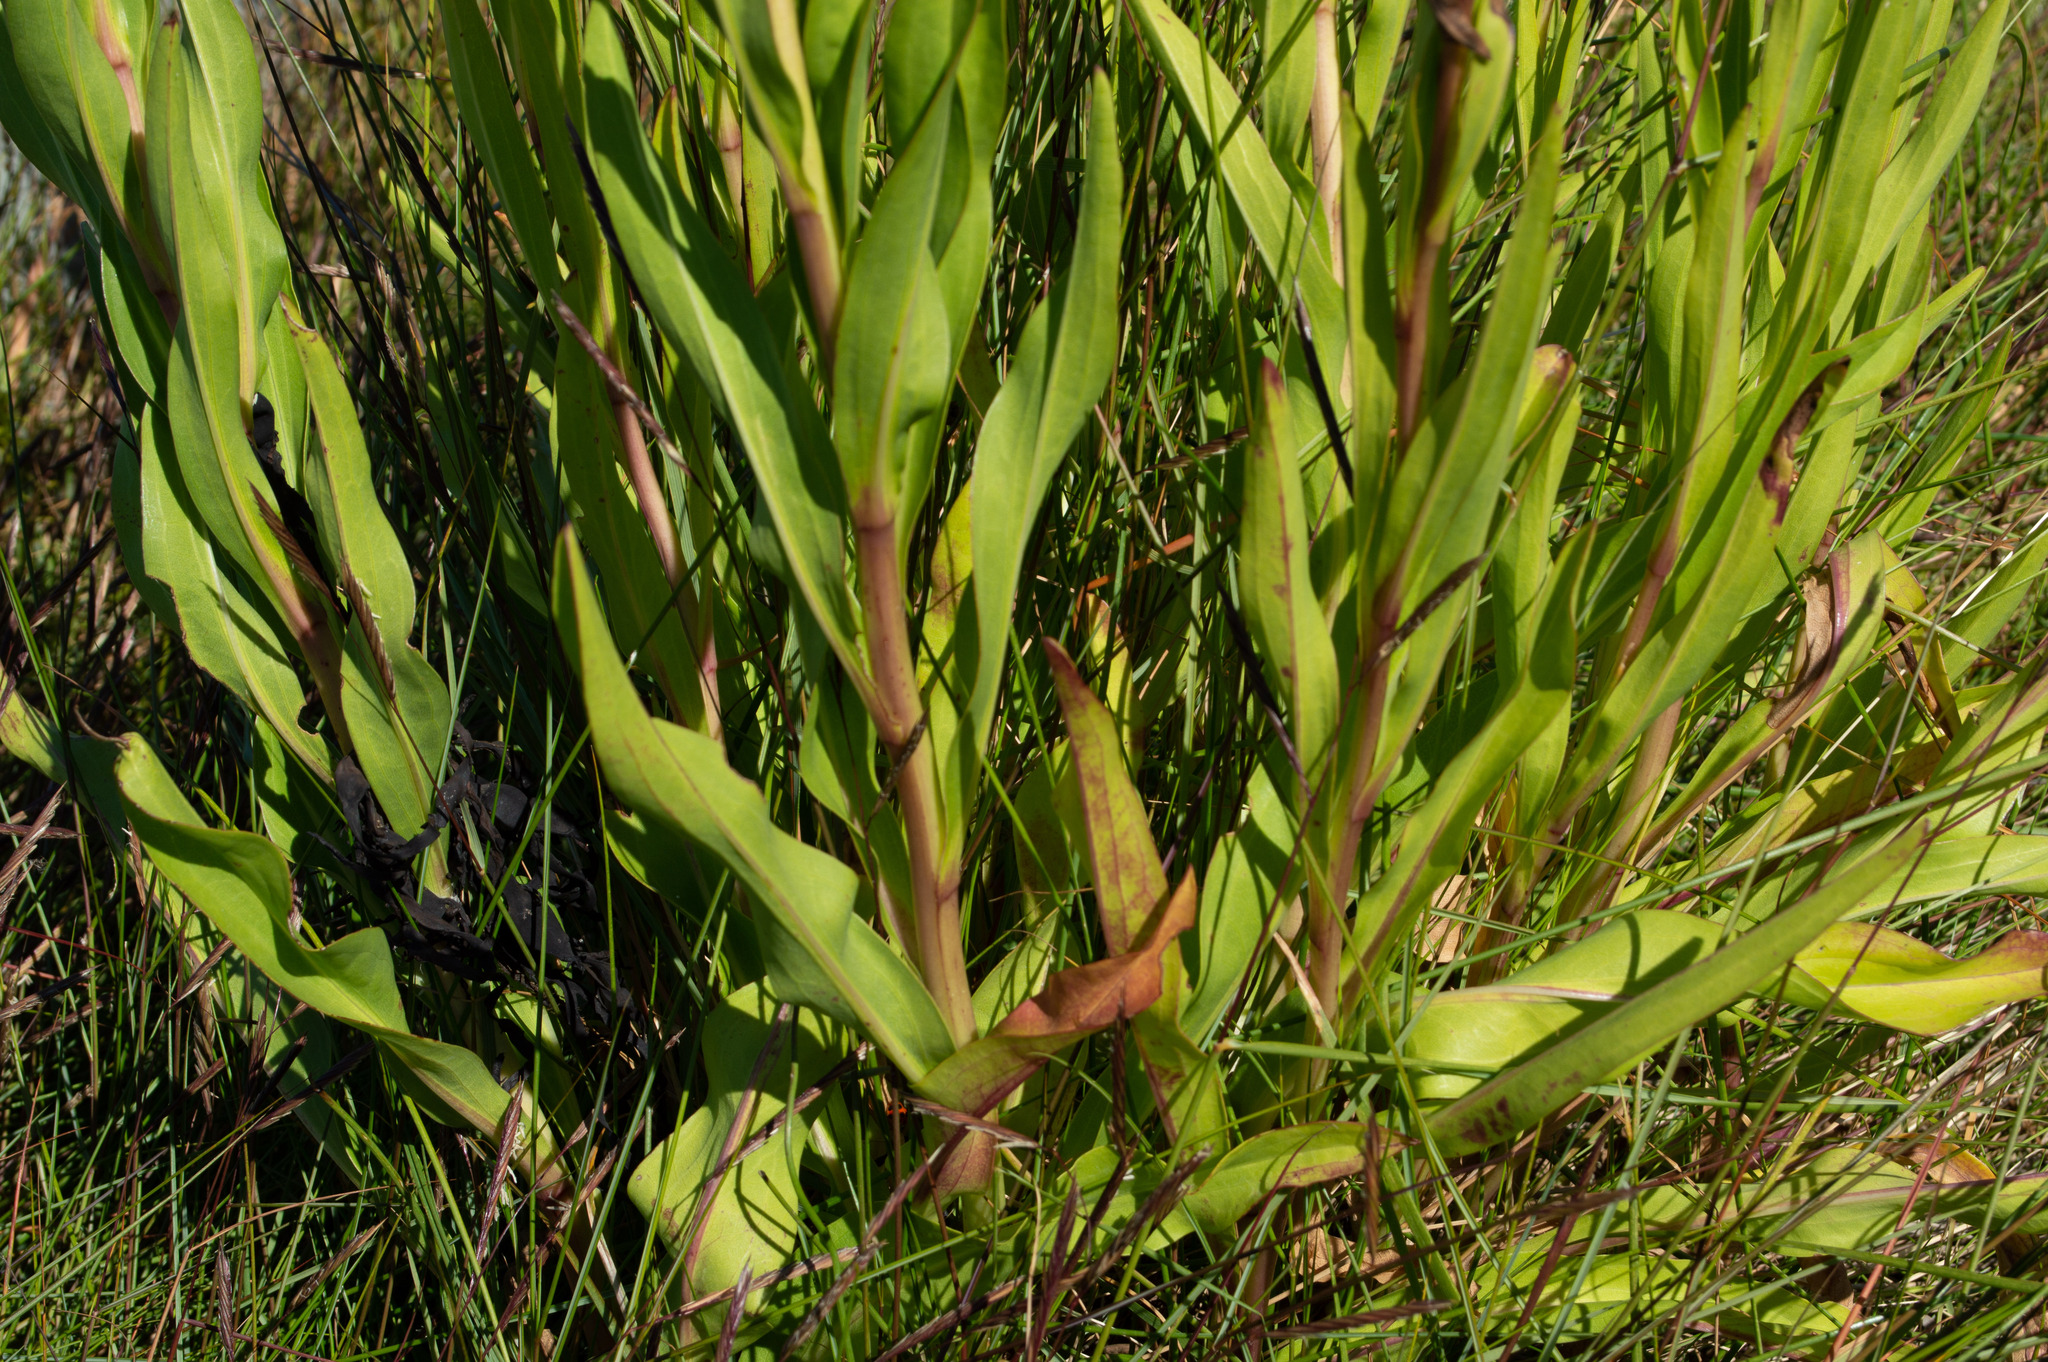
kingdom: Plantae
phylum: Tracheophyta
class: Magnoliopsida
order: Asterales
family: Asteraceae
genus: Solidago
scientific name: Solidago sempervirens
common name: Salt-marsh goldenrod
